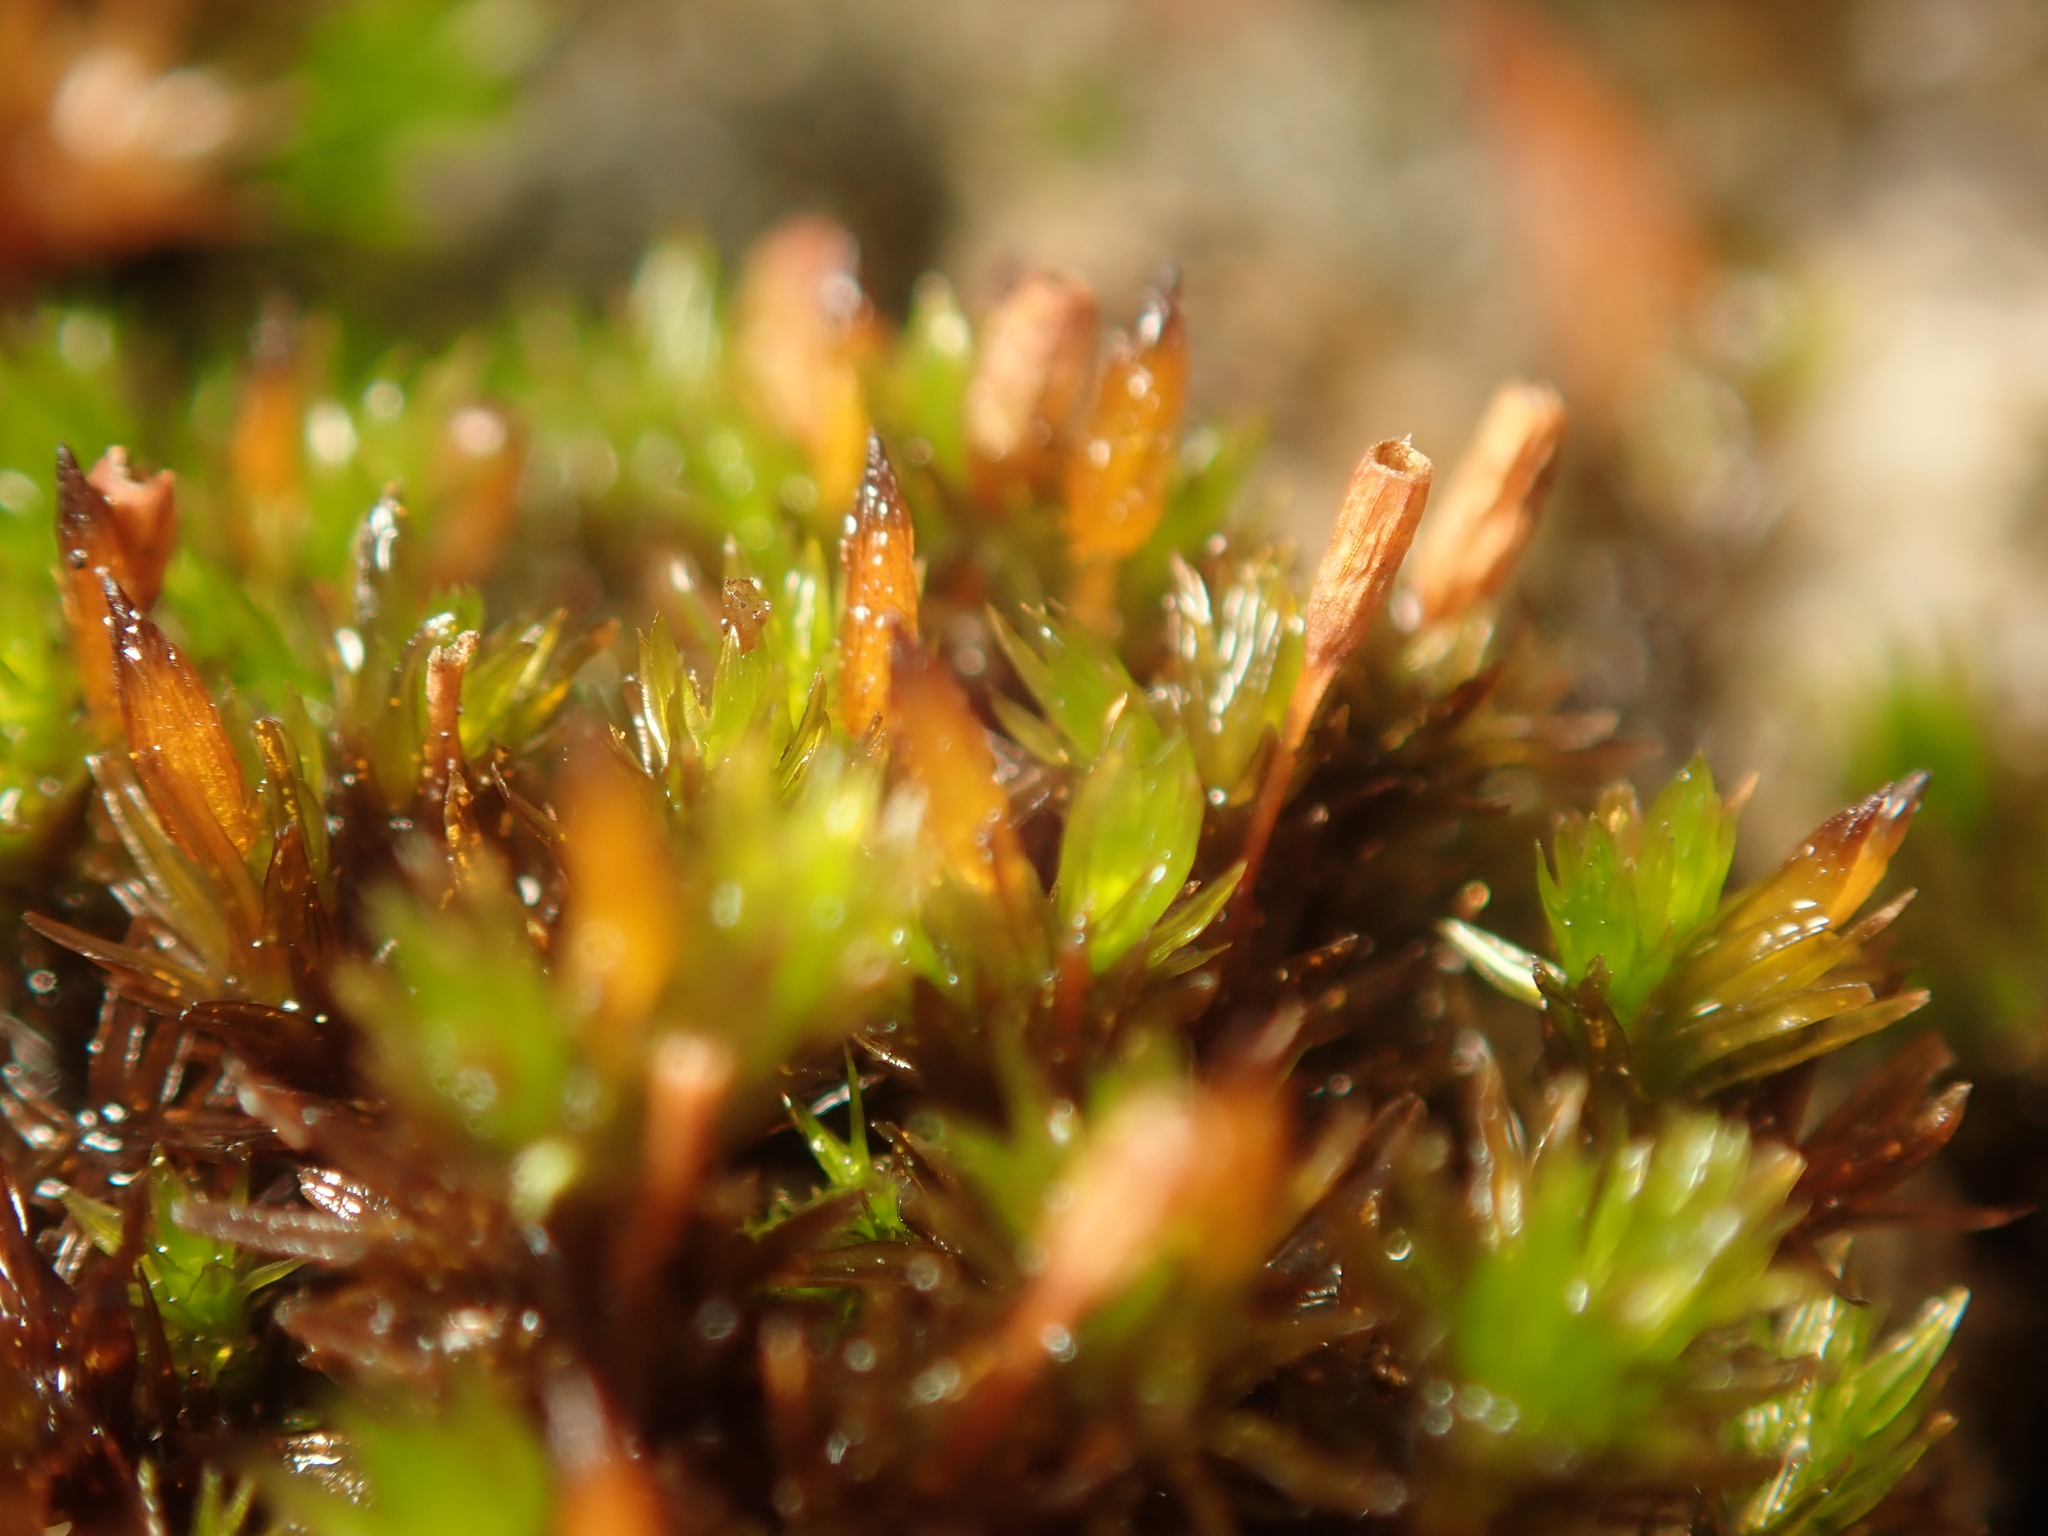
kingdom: Plantae
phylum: Bryophyta
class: Bryopsida
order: Orthotrichales
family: Orthotrichaceae
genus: Orthotrichum
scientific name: Orthotrichum anomalum
